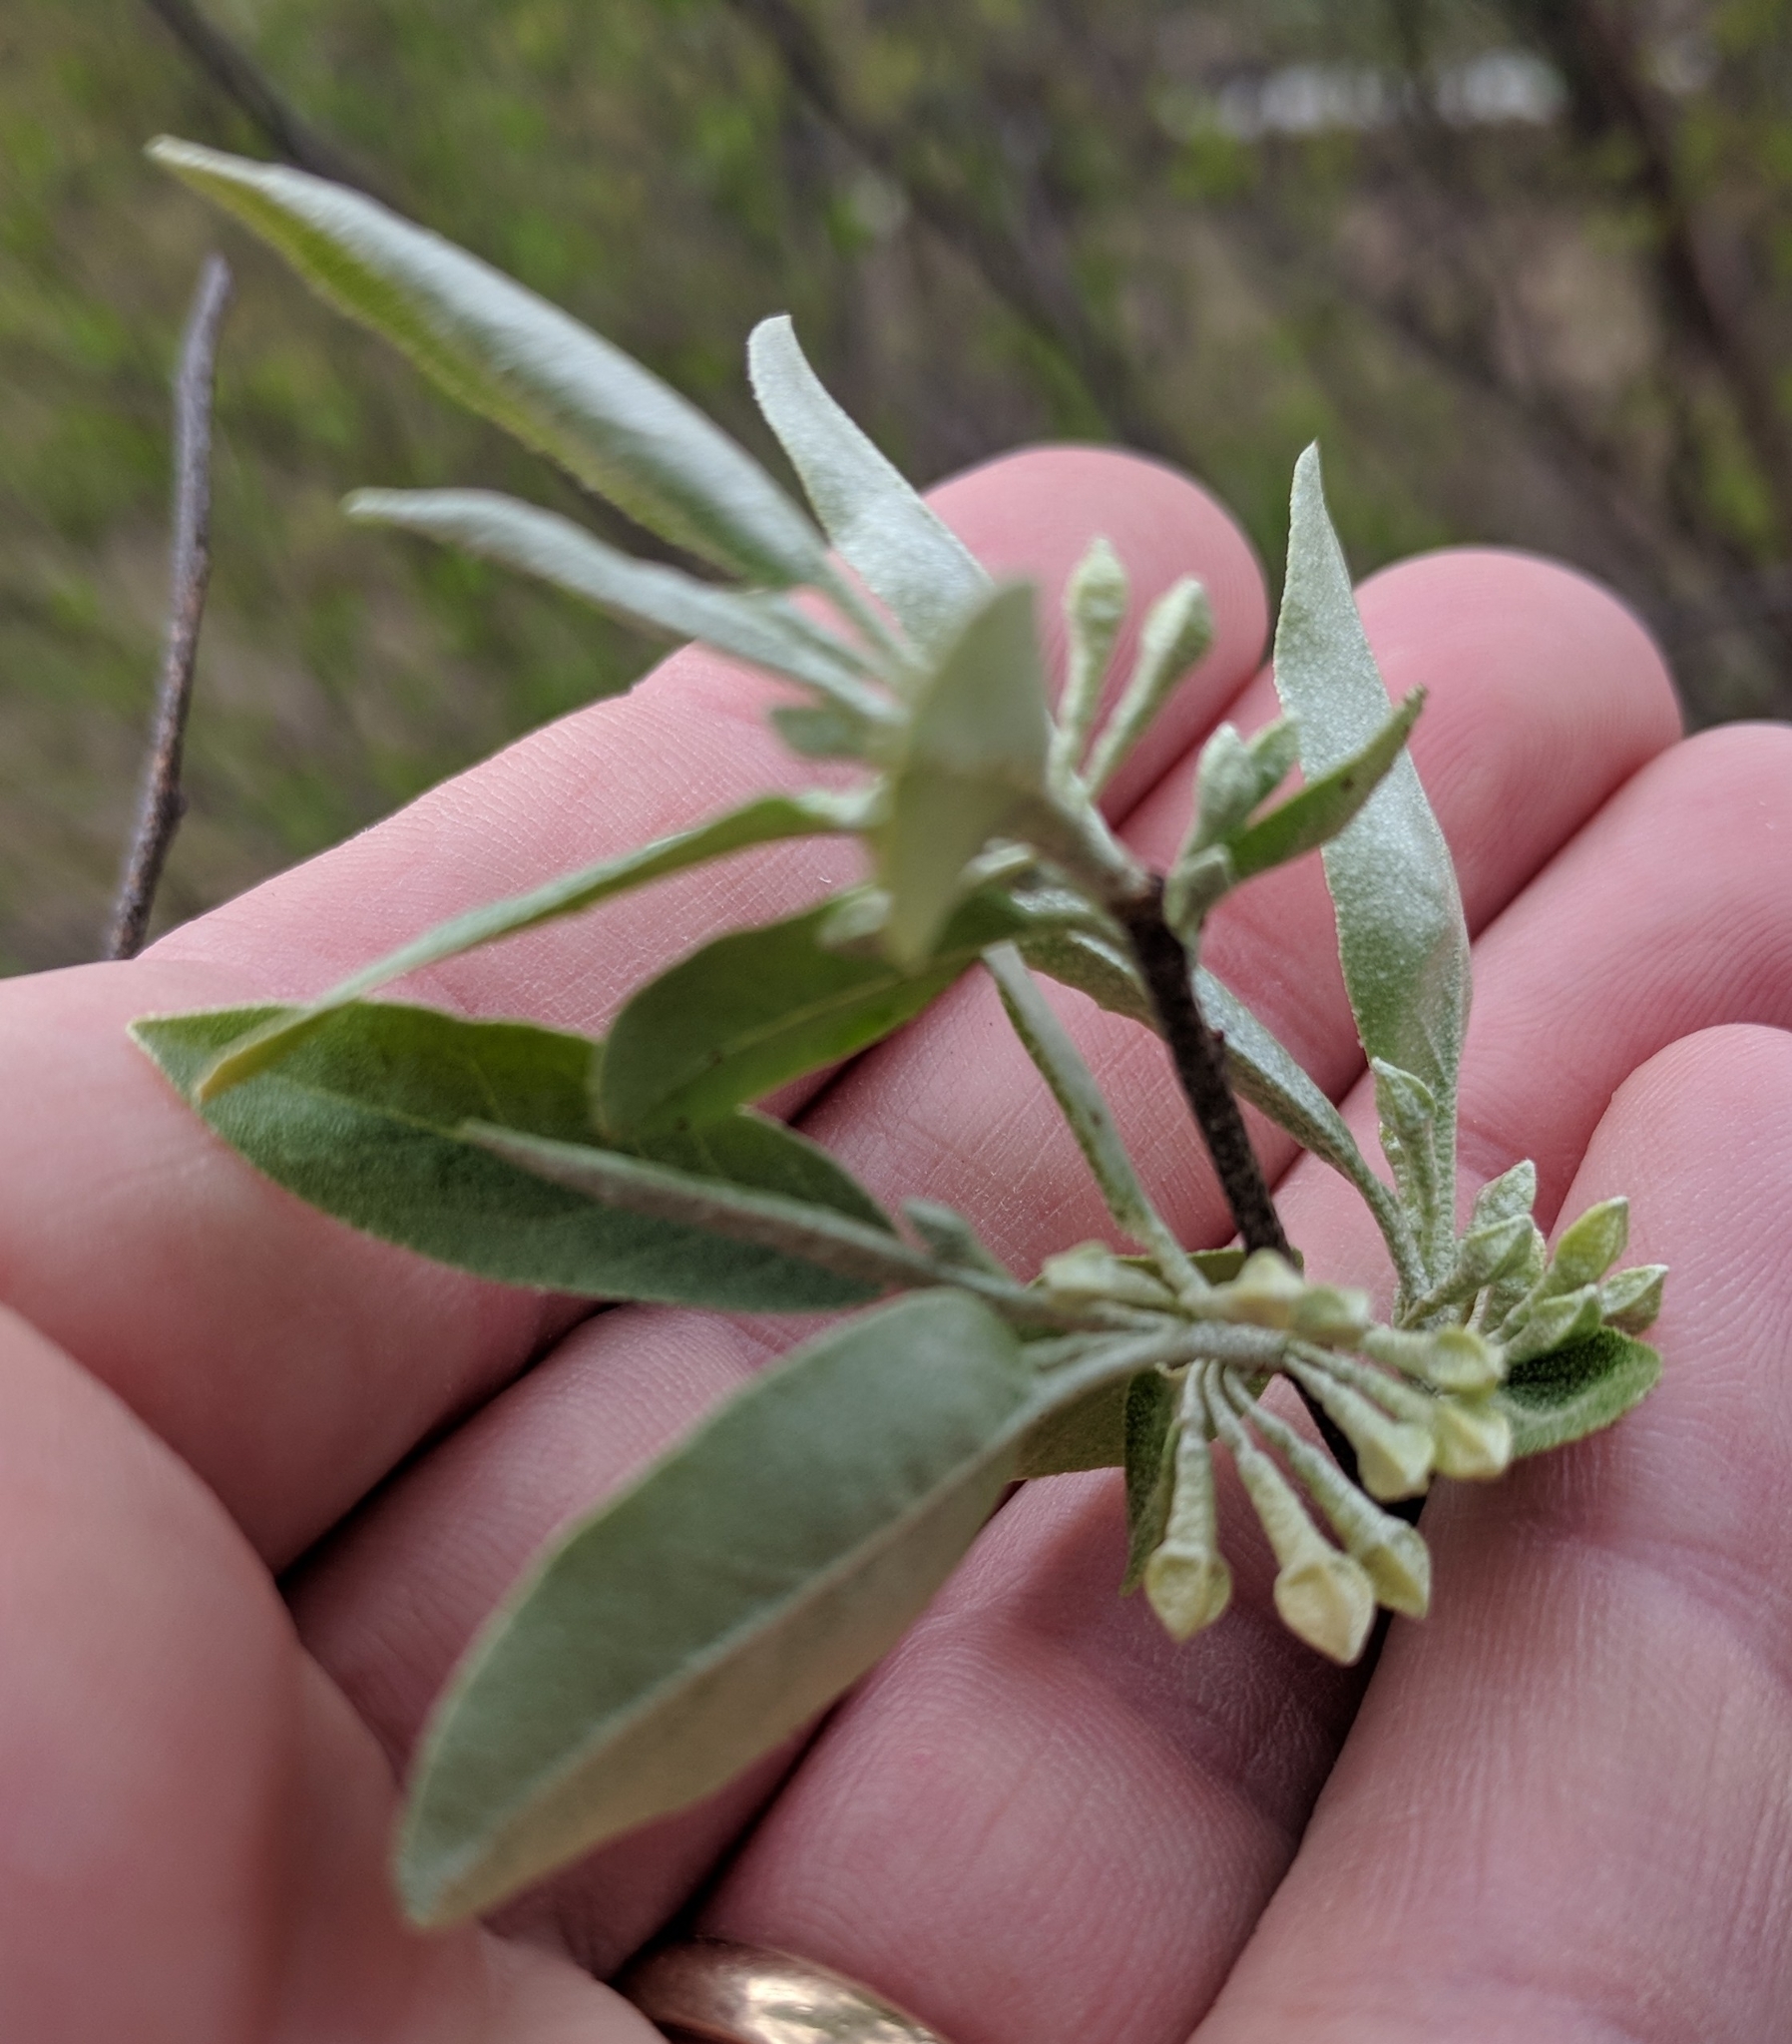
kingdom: Plantae
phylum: Tracheophyta
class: Magnoliopsida
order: Rosales
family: Elaeagnaceae
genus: Elaeagnus
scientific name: Elaeagnus umbellata
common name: Autumn olive
